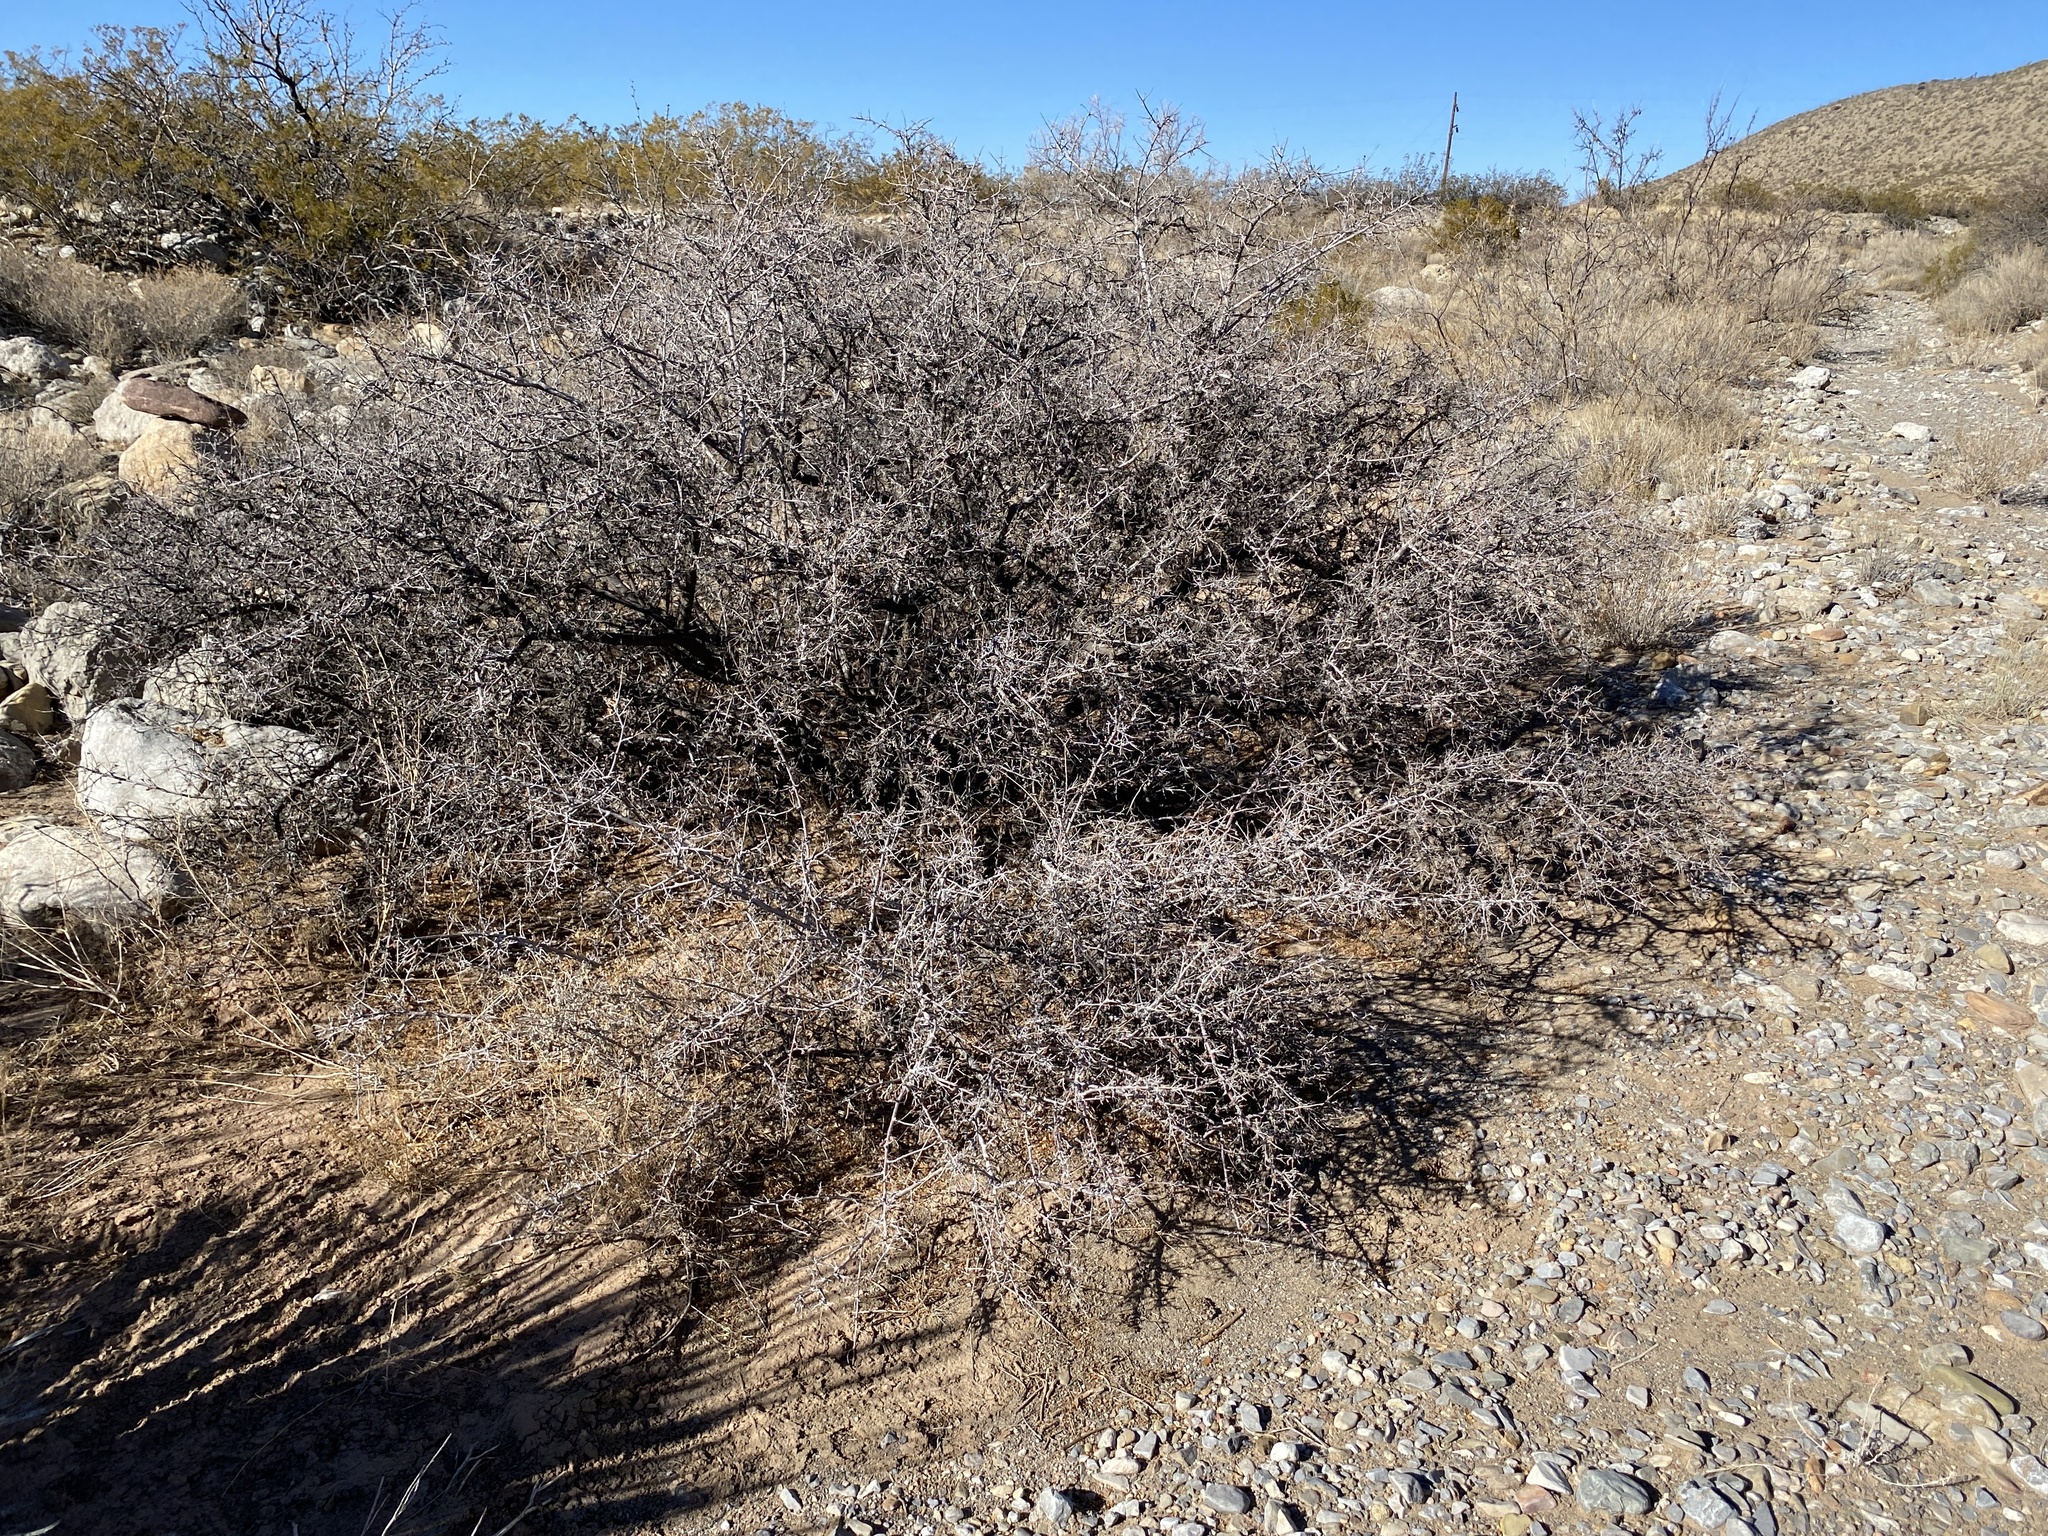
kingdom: Plantae
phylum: Tracheophyta
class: Magnoliopsida
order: Sapindales
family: Anacardiaceae
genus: Rhus
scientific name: Rhus microphylla
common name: Desert sumac
